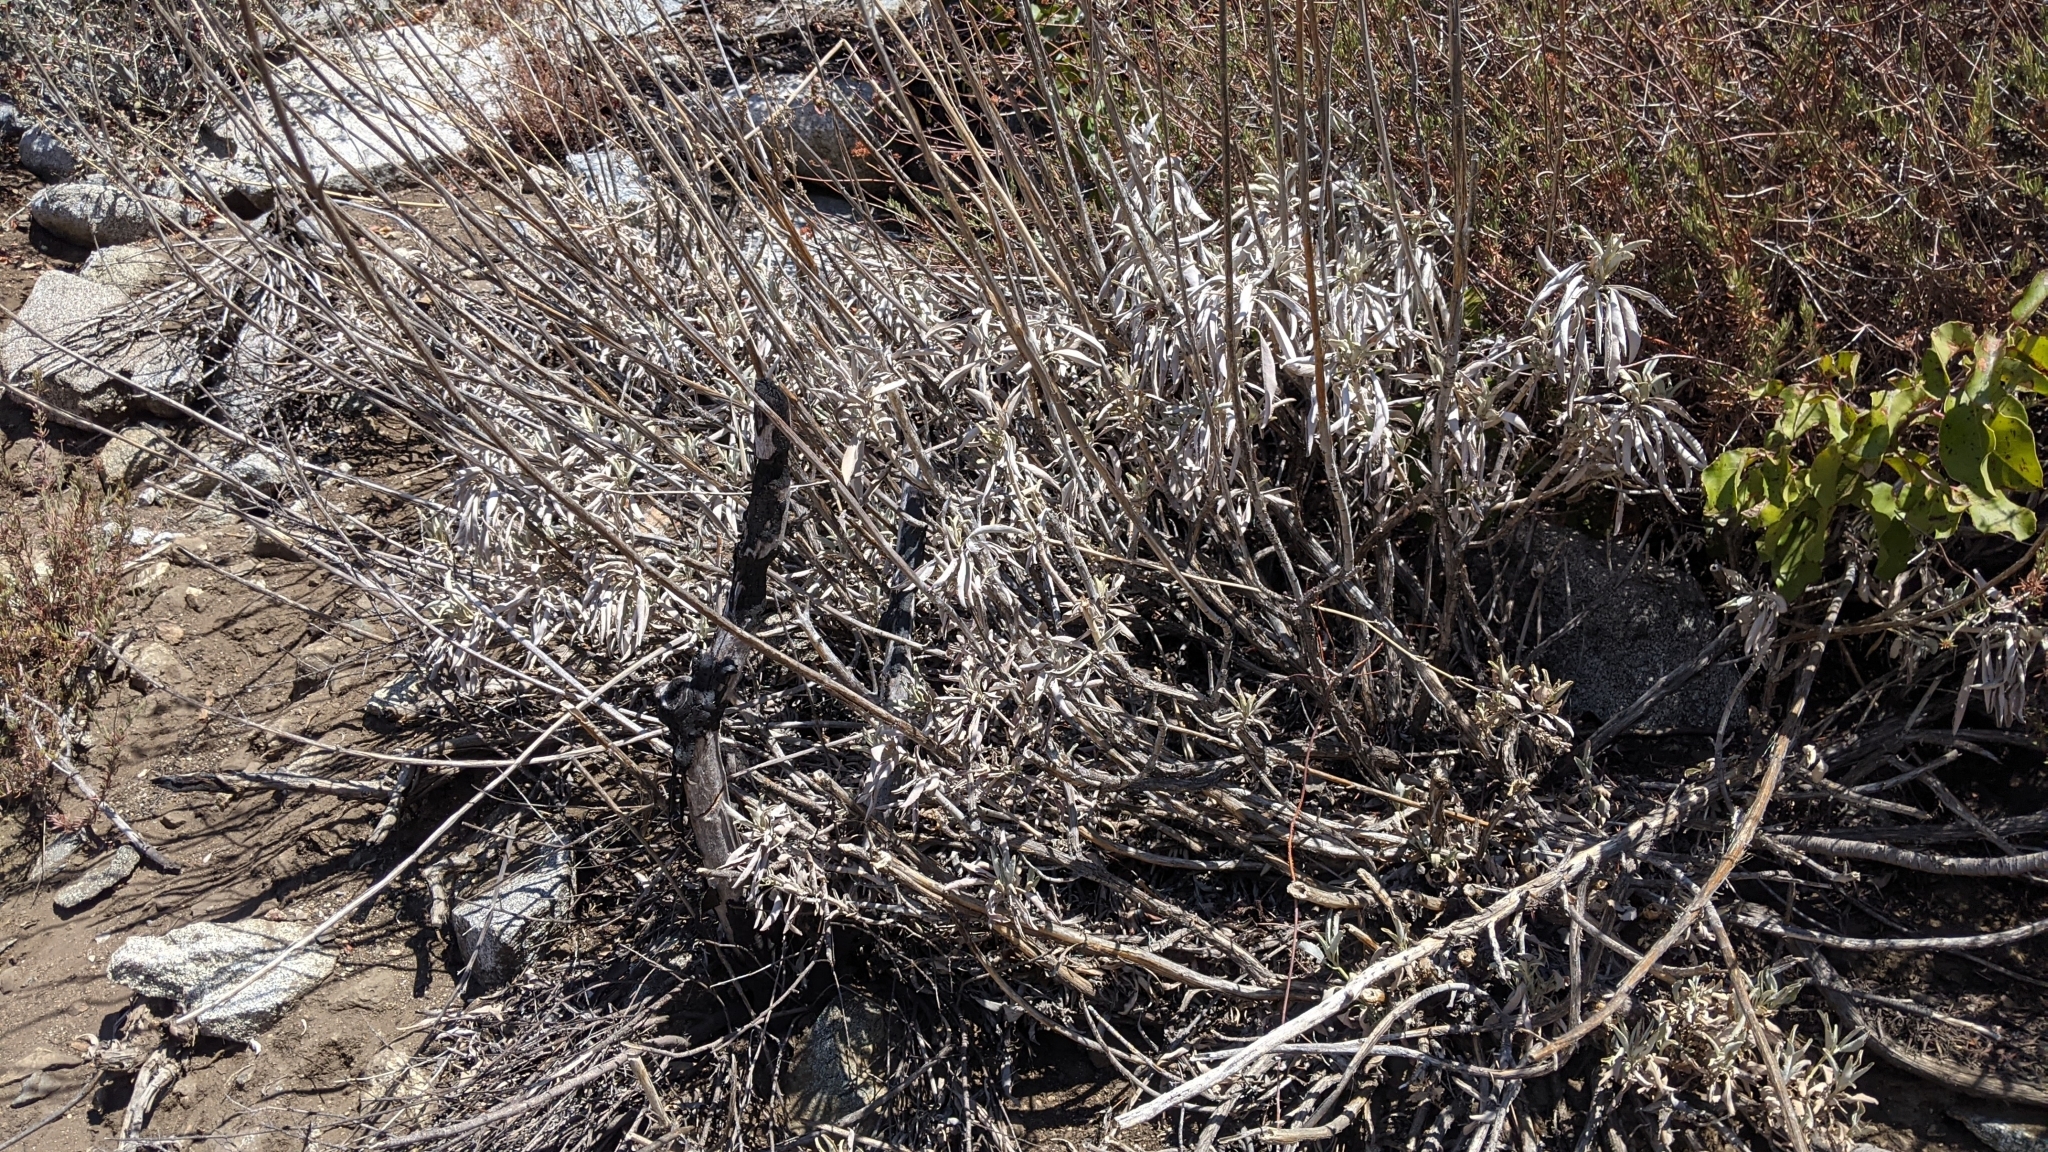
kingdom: Plantae
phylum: Tracheophyta
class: Magnoliopsida
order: Lamiales
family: Lamiaceae
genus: Salvia
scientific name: Salvia apiana
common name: White sage
